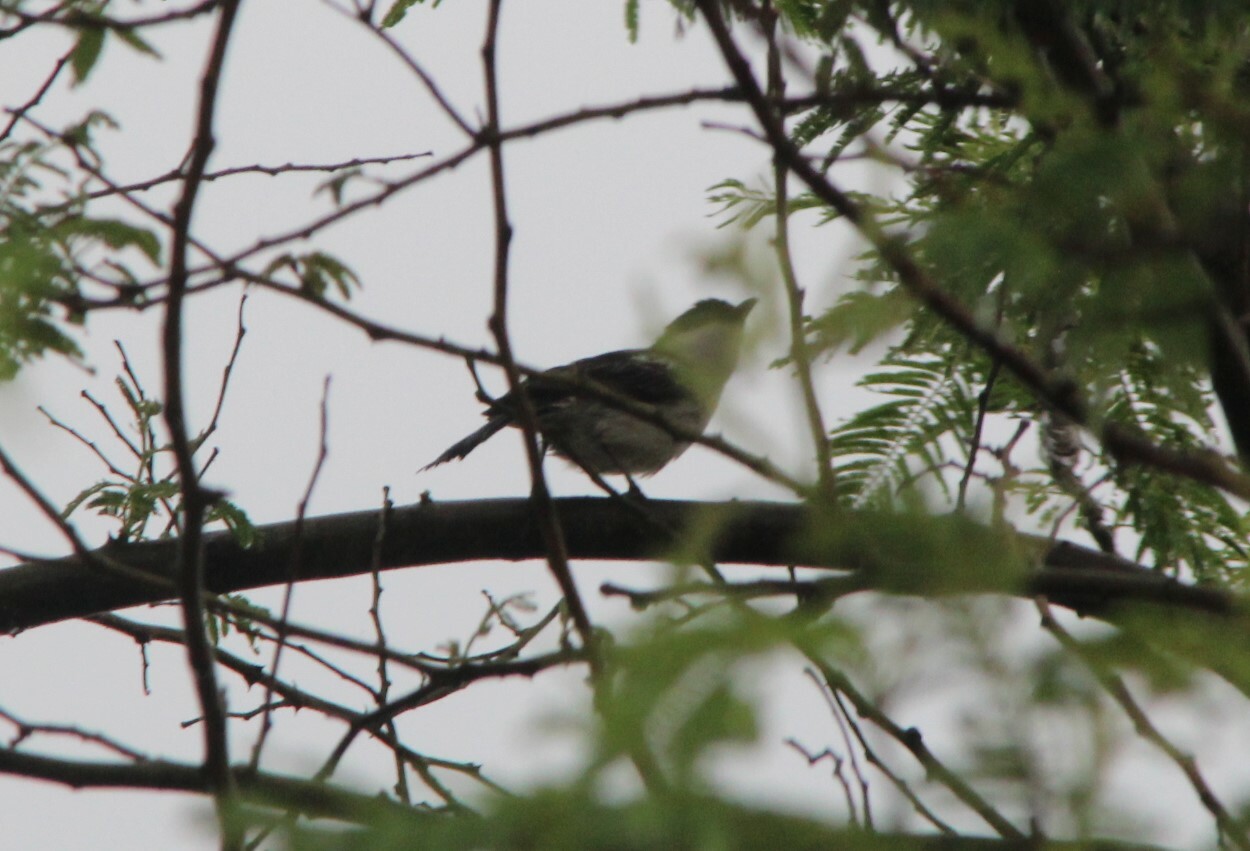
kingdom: Animalia
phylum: Chordata
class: Aves
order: Passeriformes
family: Malaconotidae
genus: Dryoscopus
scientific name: Dryoscopus gambensis
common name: Northern puffback
